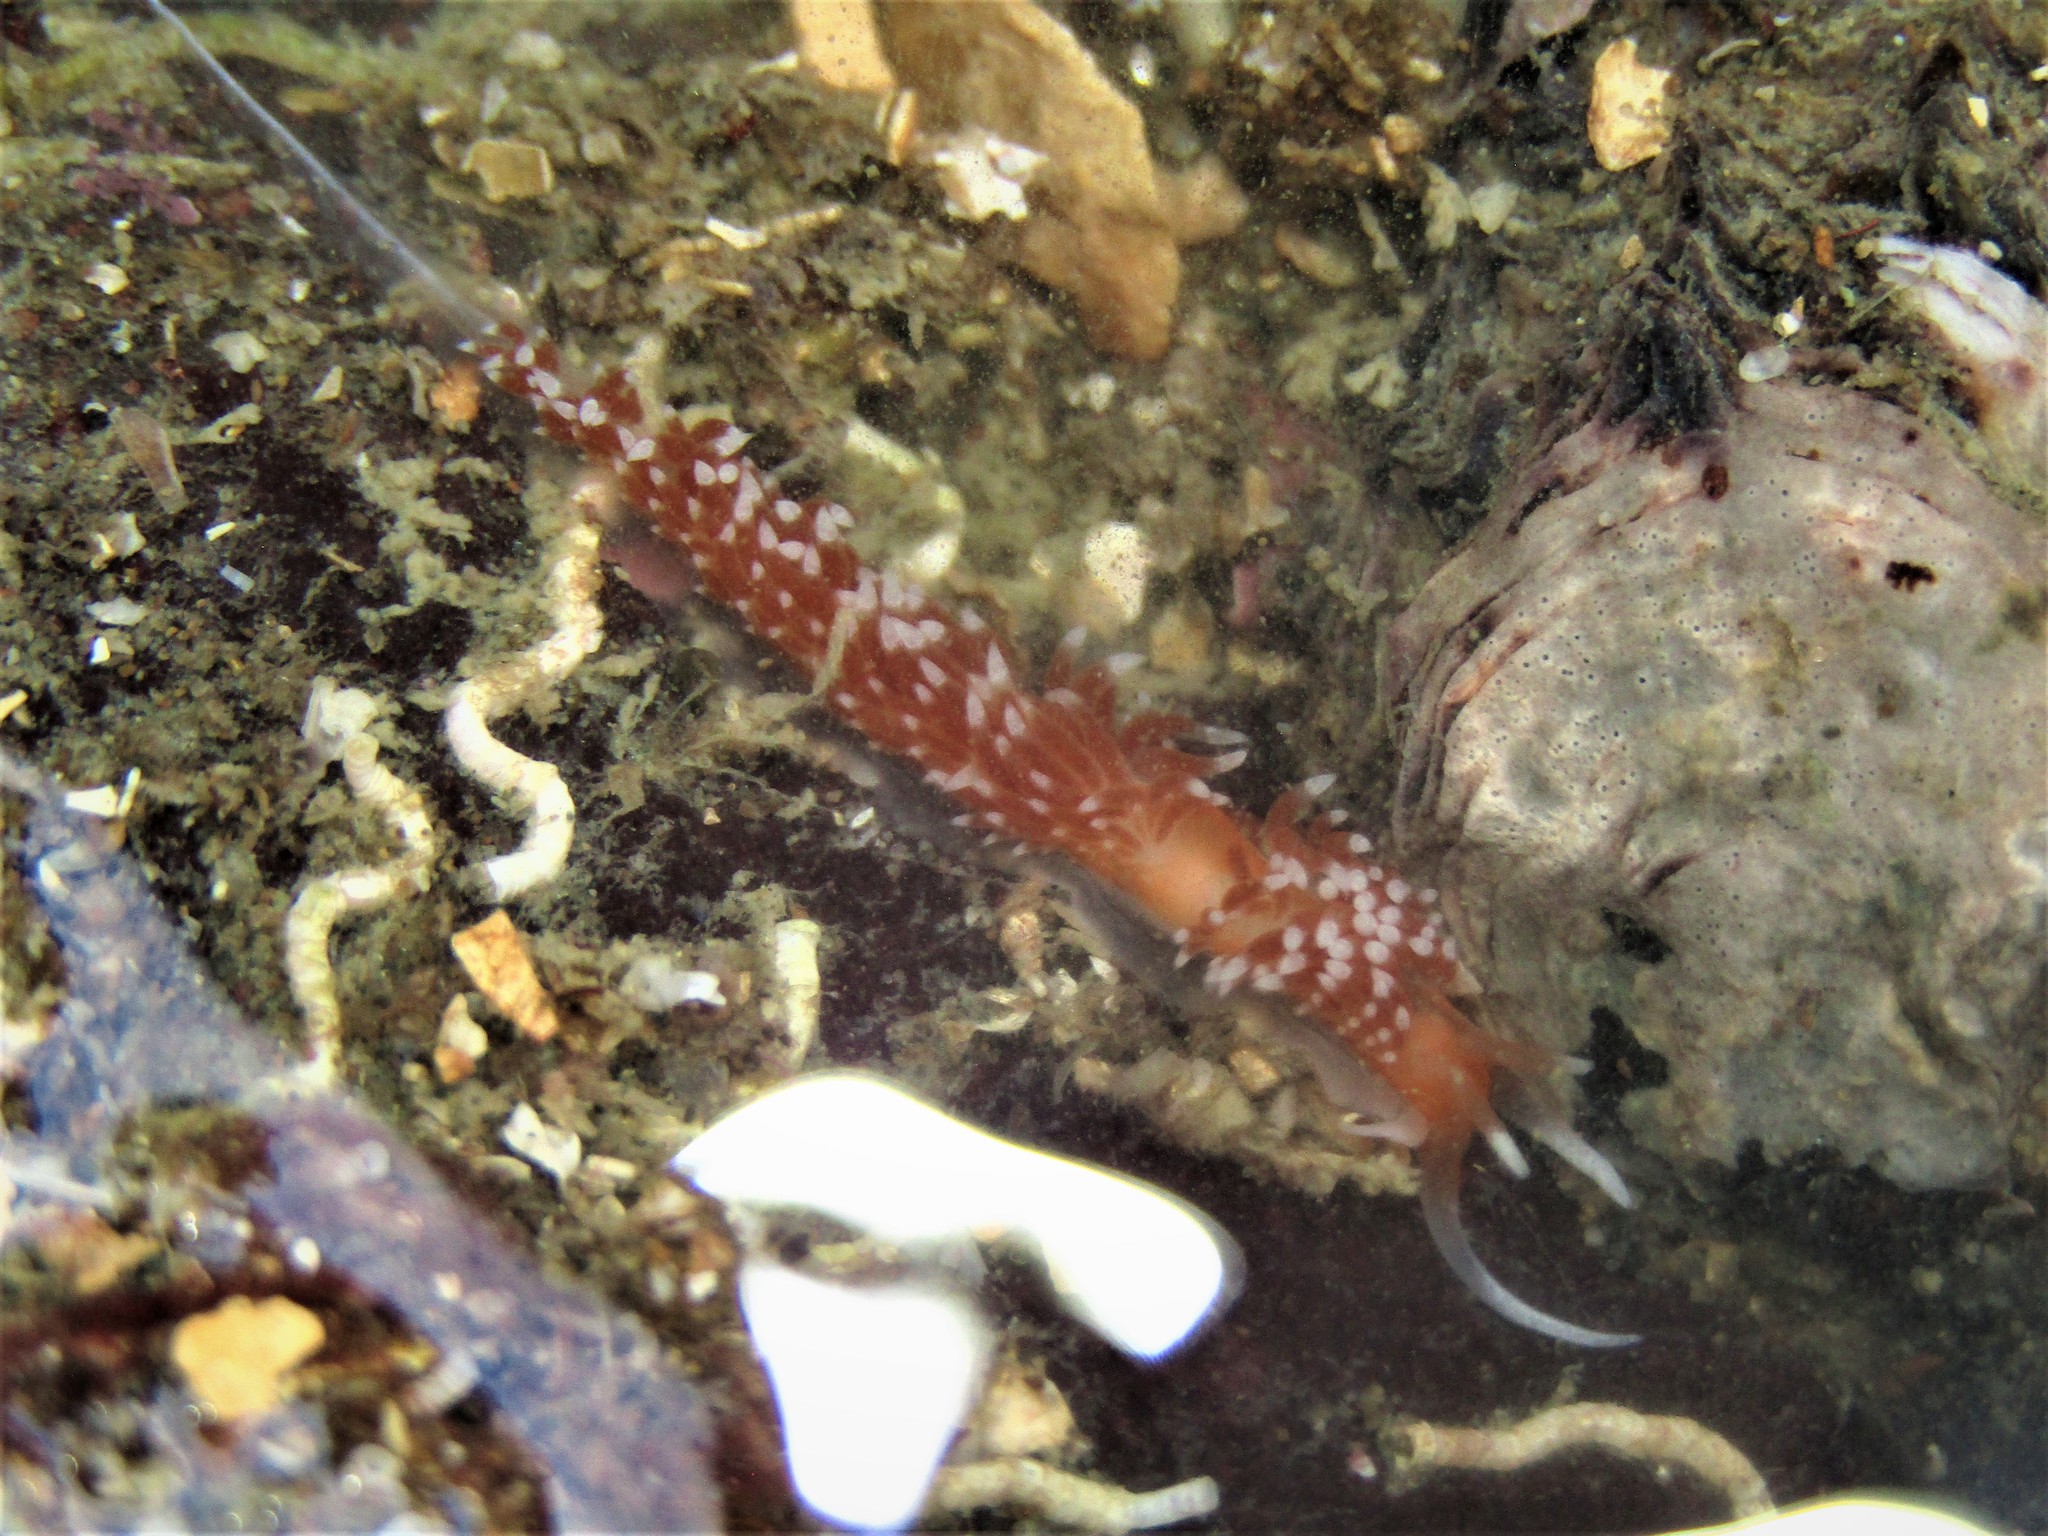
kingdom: Animalia
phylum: Mollusca
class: Gastropoda
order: Nudibranchia
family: Facelinidae
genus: Phidiana
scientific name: Phidiana milleri
